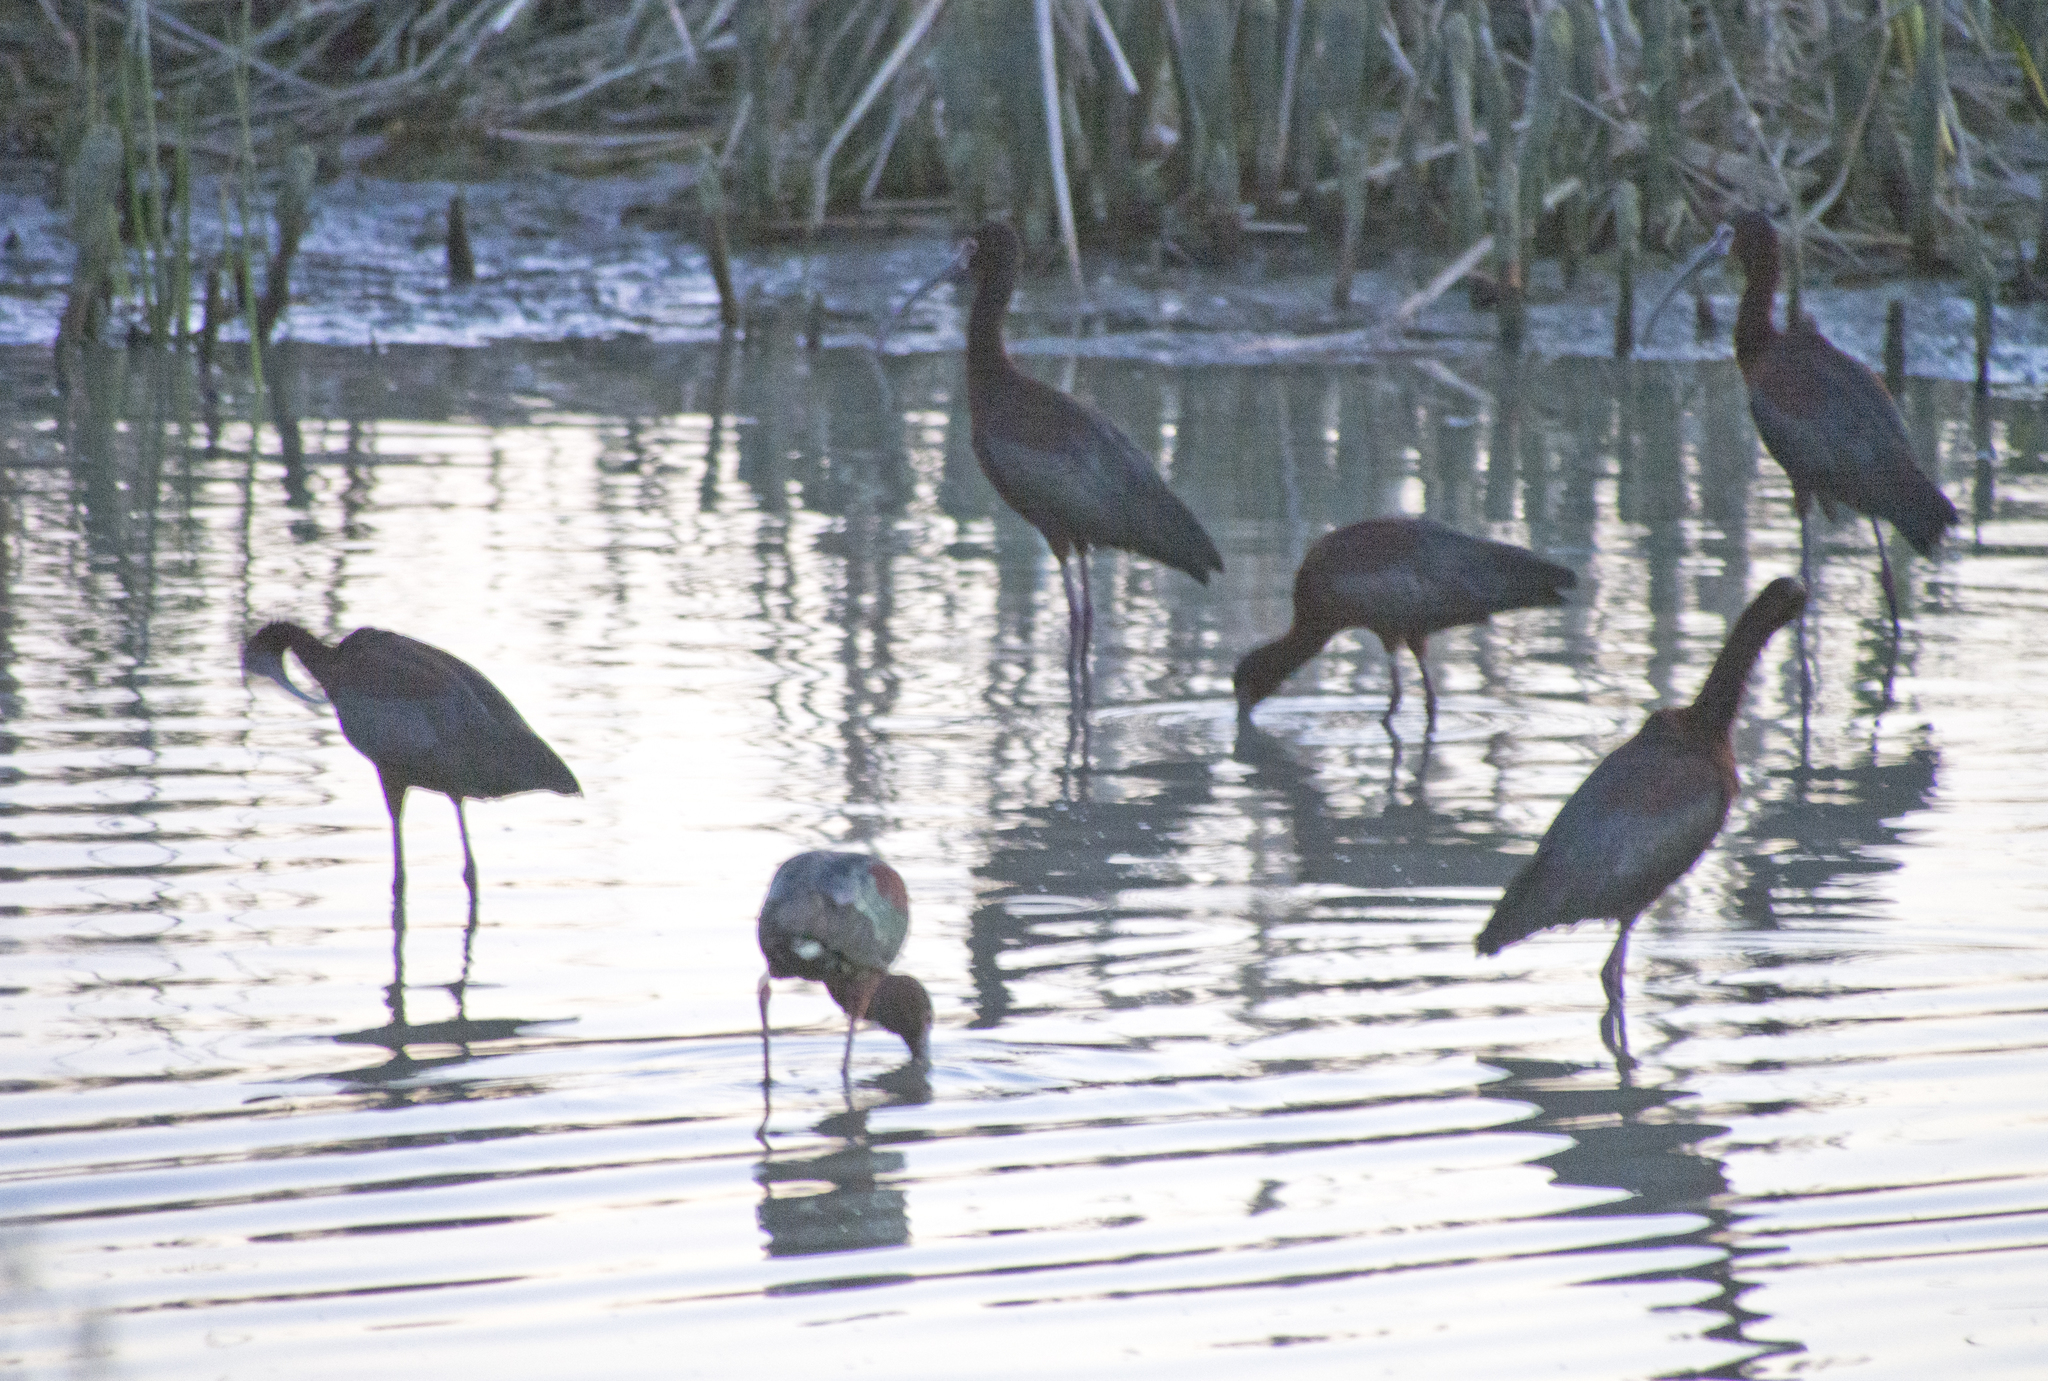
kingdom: Animalia
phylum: Chordata
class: Aves
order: Pelecaniformes
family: Threskiornithidae
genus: Plegadis
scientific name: Plegadis chihi
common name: White-faced ibis
